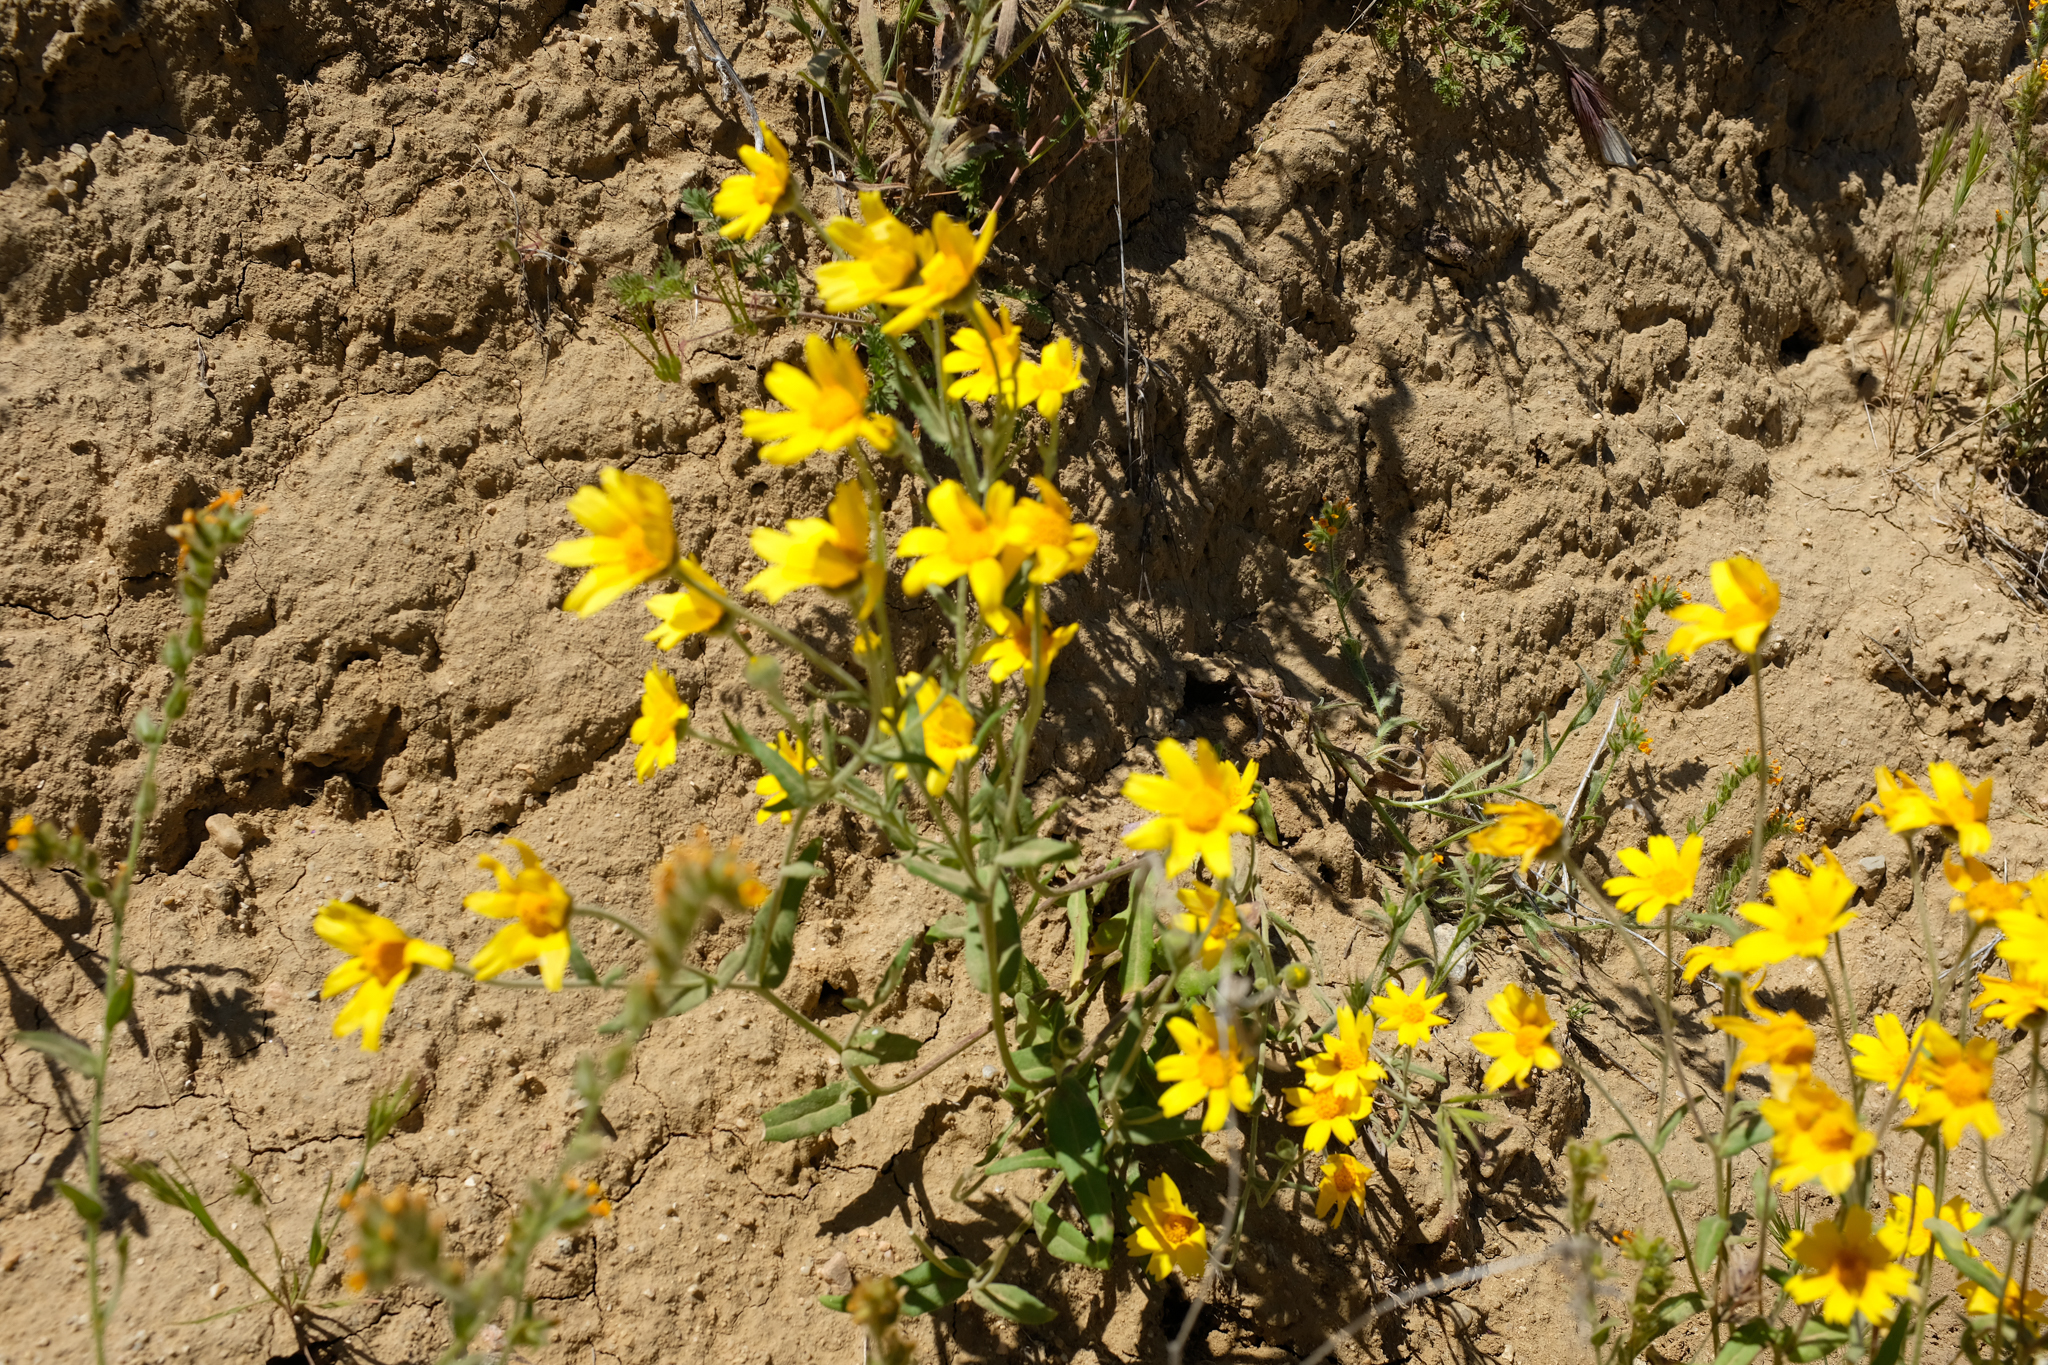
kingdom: Plantae
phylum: Tracheophyta
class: Magnoliopsida
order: Asterales
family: Asteraceae
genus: Monolopia
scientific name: Monolopia lanceolata
